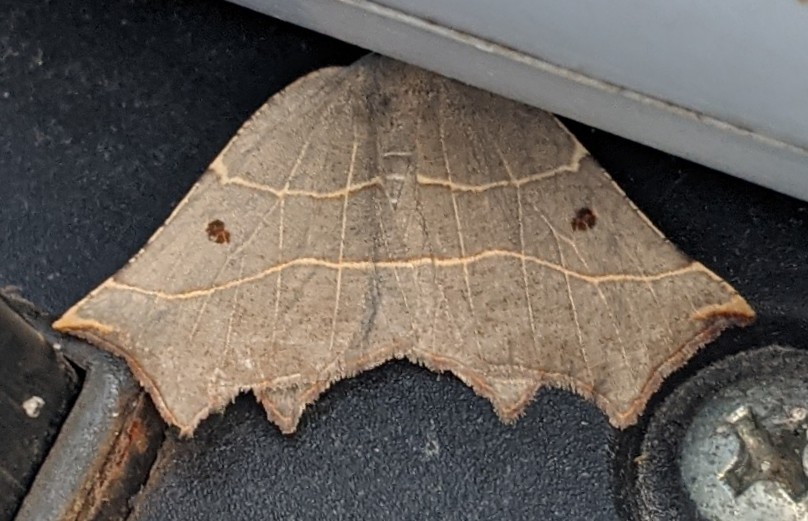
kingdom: Animalia
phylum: Arthropoda
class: Insecta
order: Lepidoptera
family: Geometridae
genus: Metanema
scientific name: Metanema inatomaria
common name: Pale metanema
